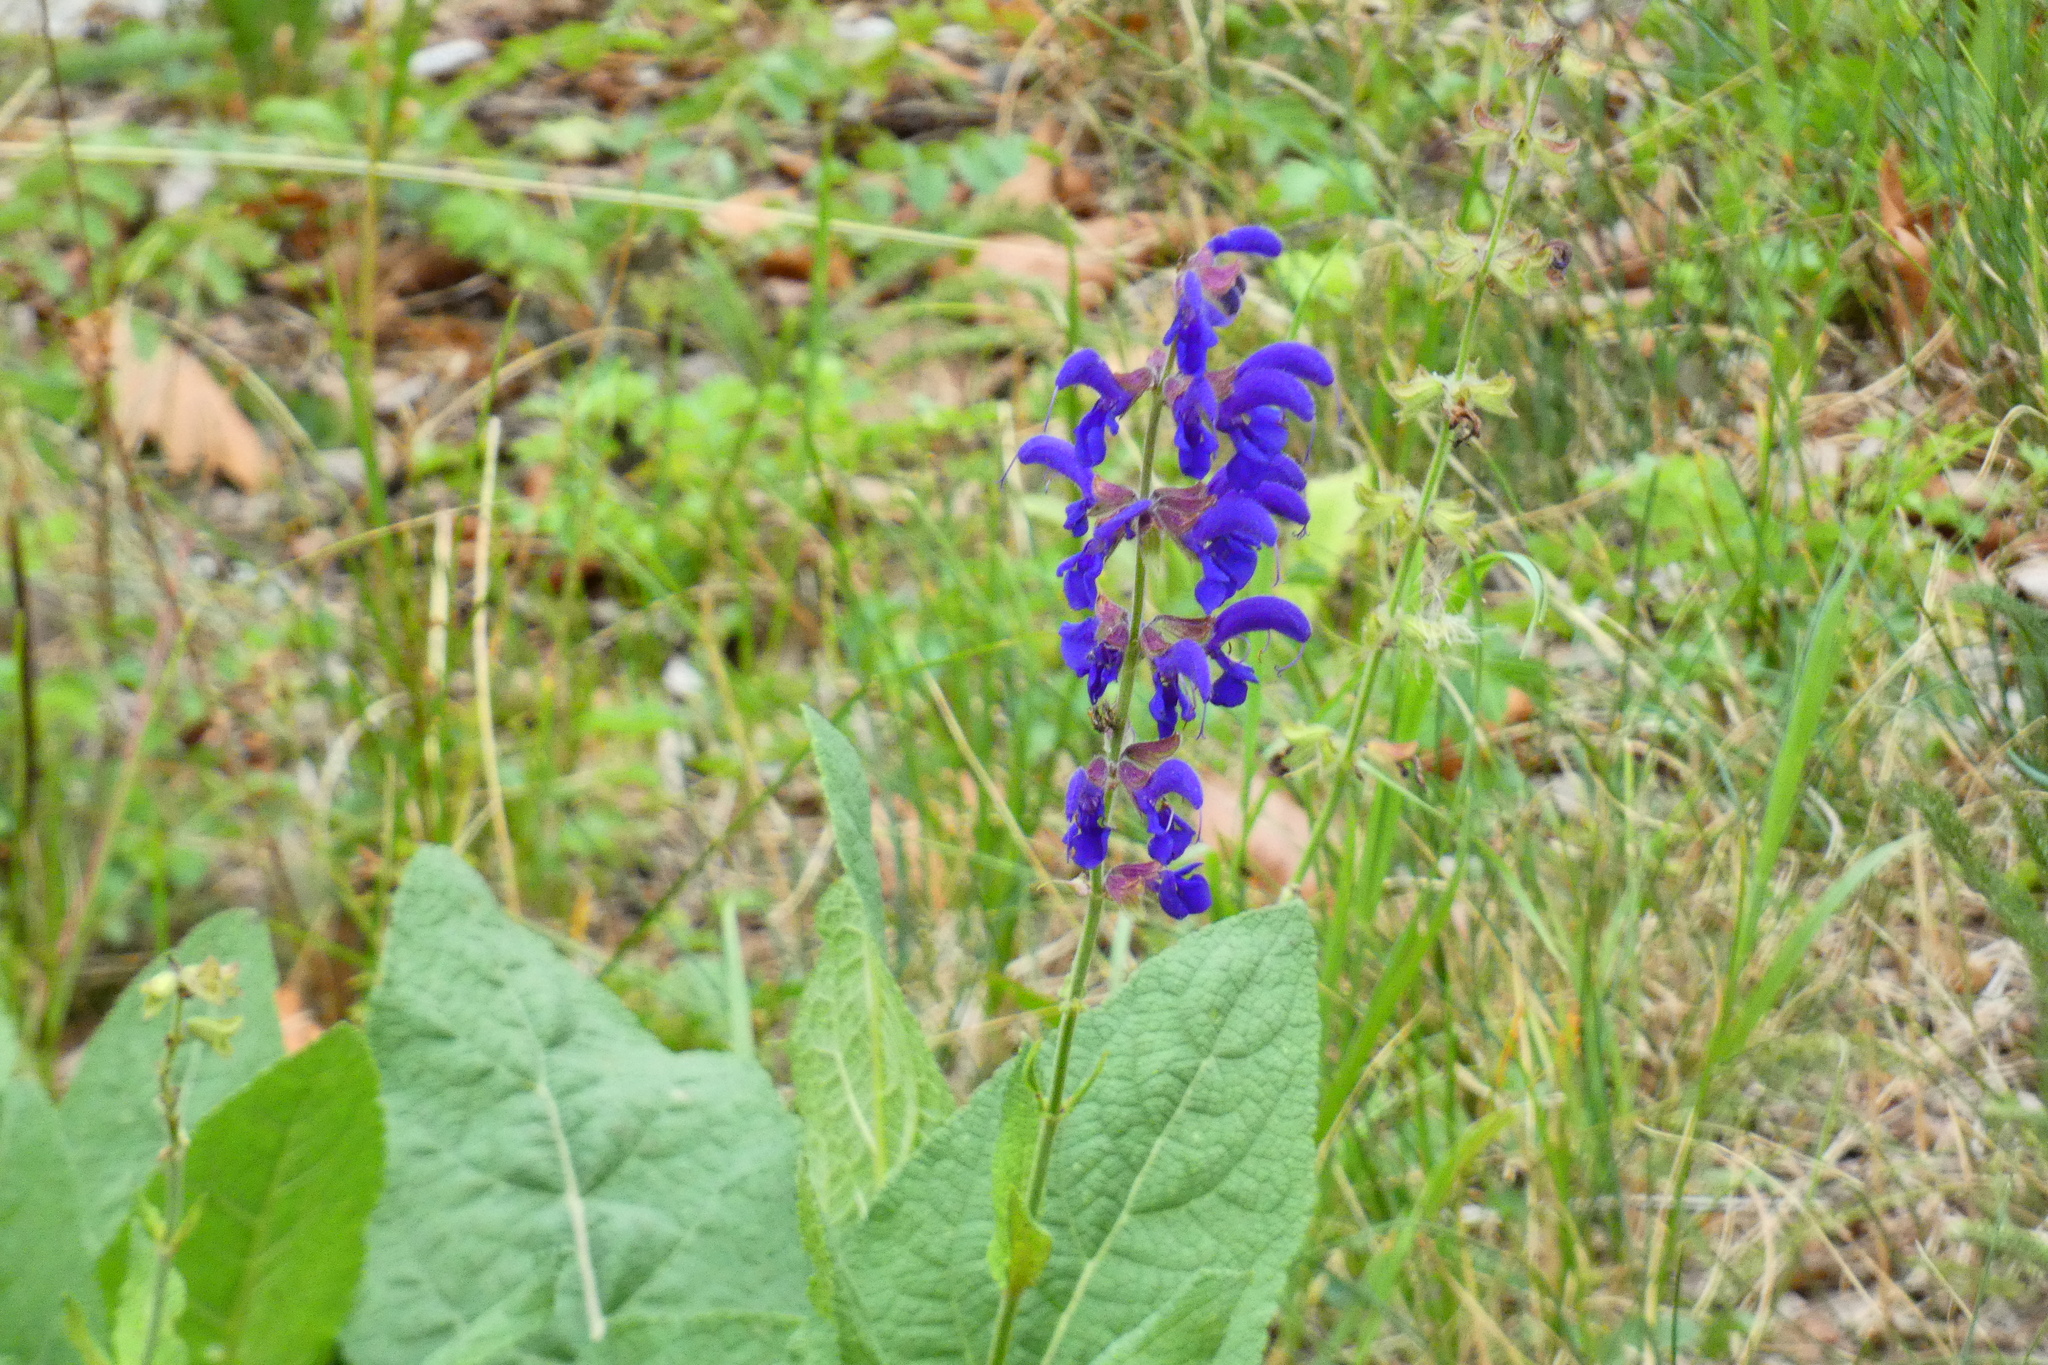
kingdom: Plantae
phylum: Tracheophyta
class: Magnoliopsida
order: Lamiales
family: Lamiaceae
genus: Salvia
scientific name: Salvia pratensis
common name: Meadow sage
